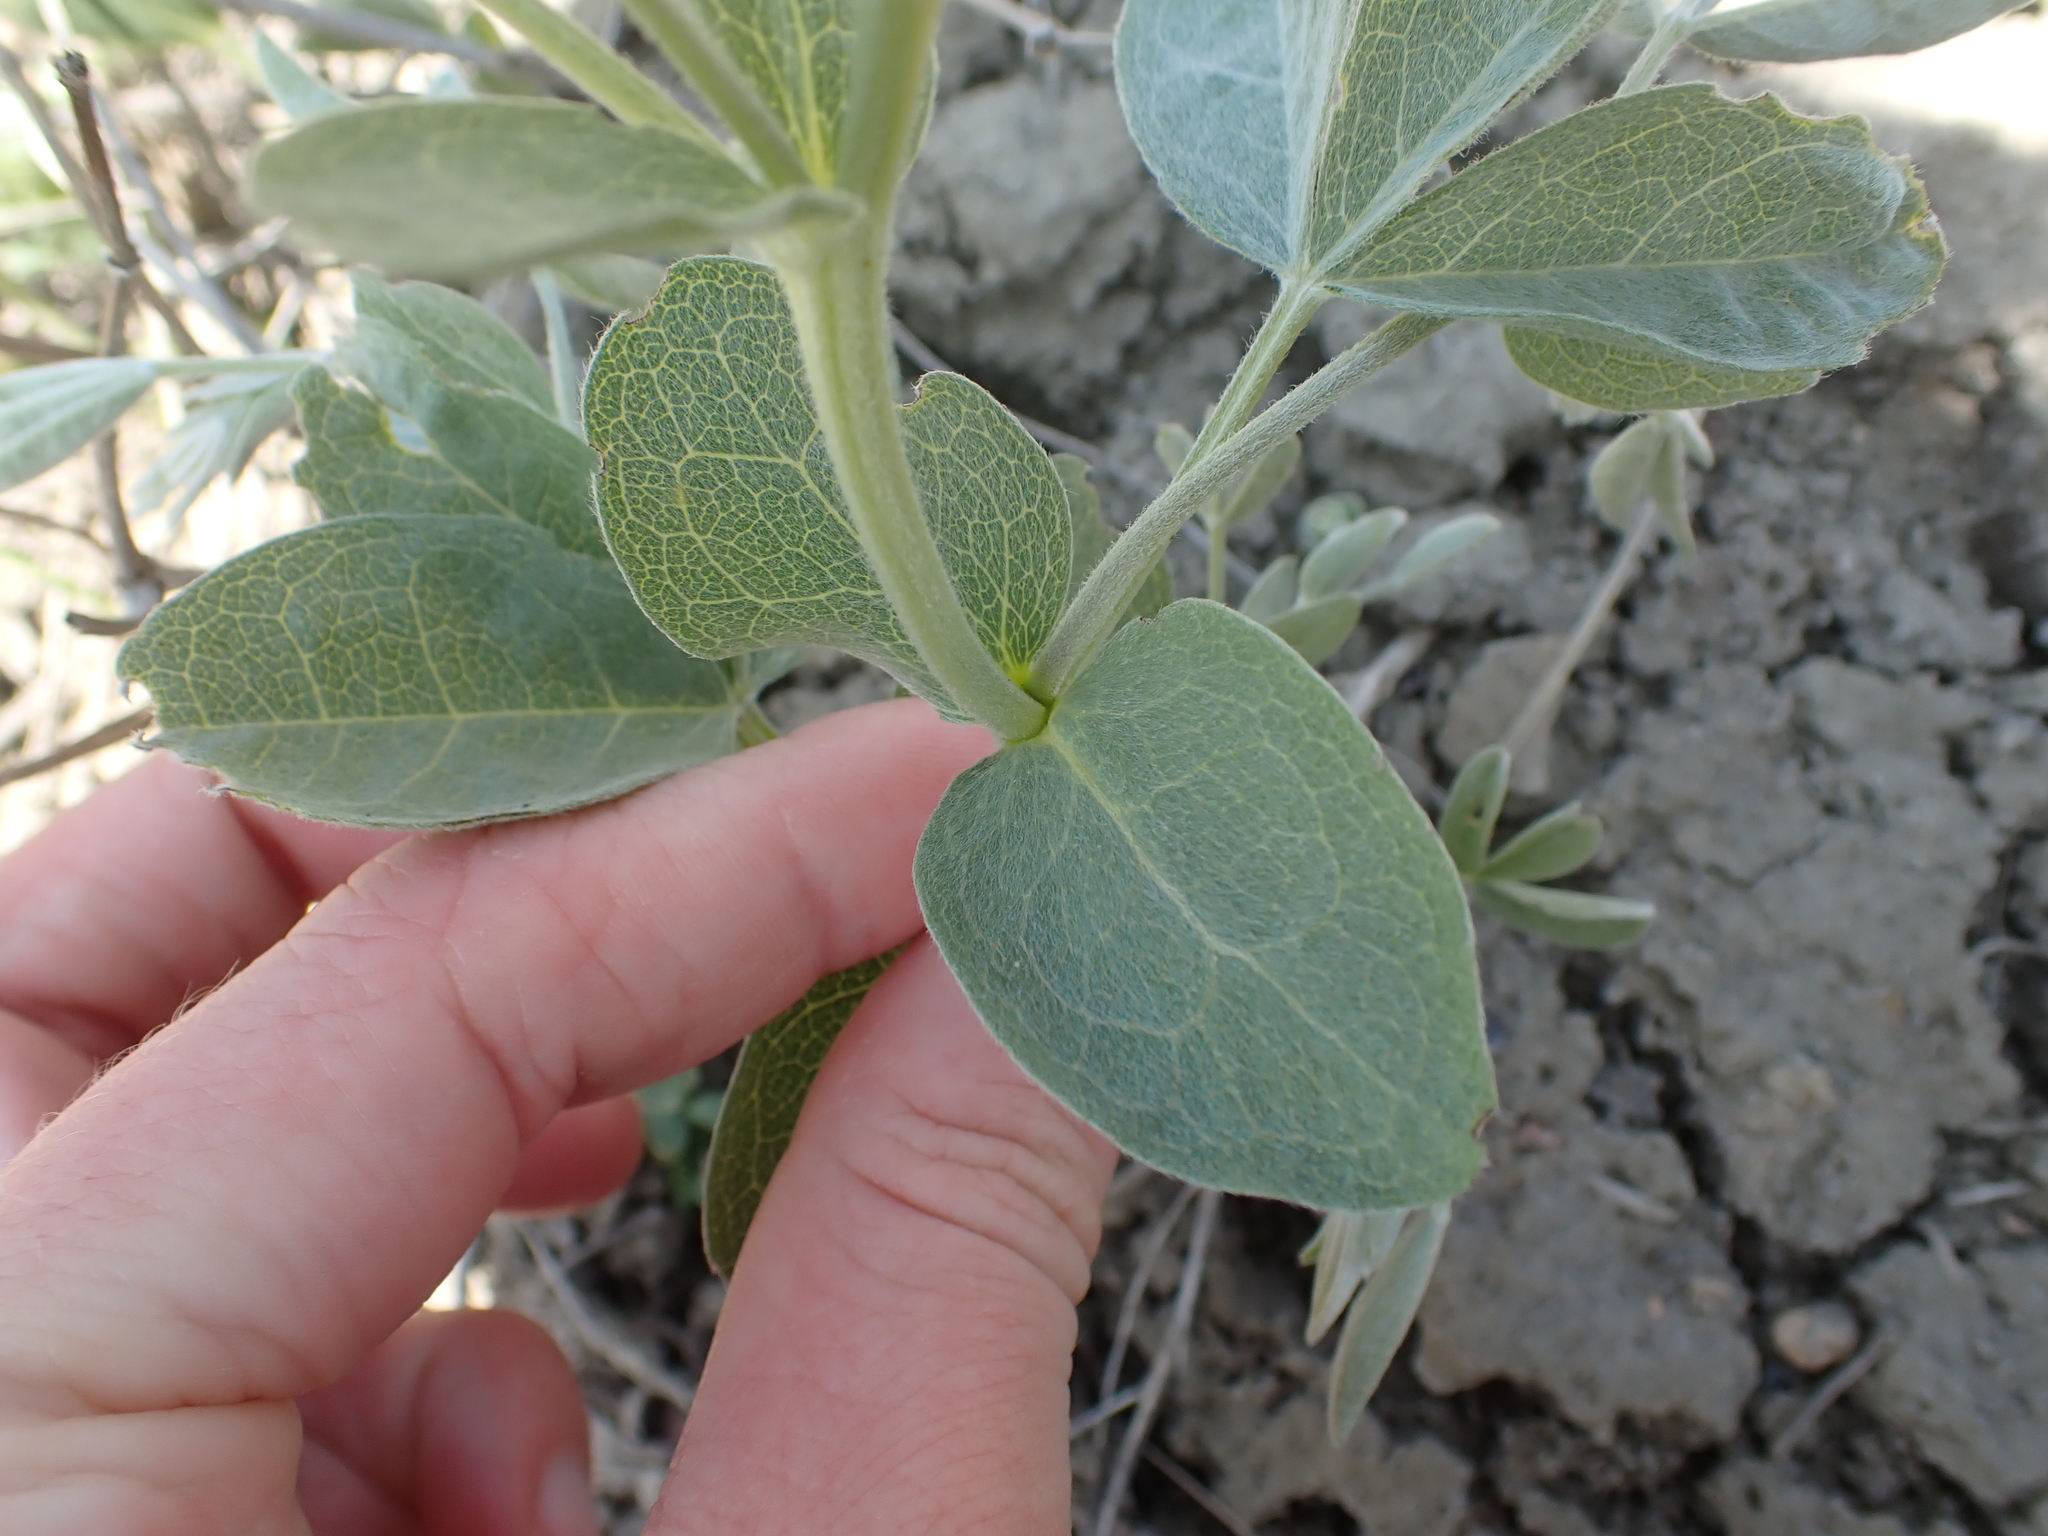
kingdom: Plantae
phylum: Tracheophyta
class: Magnoliopsida
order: Fabales
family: Fabaceae
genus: Thermopsis
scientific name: Thermopsis rhombifolia
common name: Circle-pod-pea
